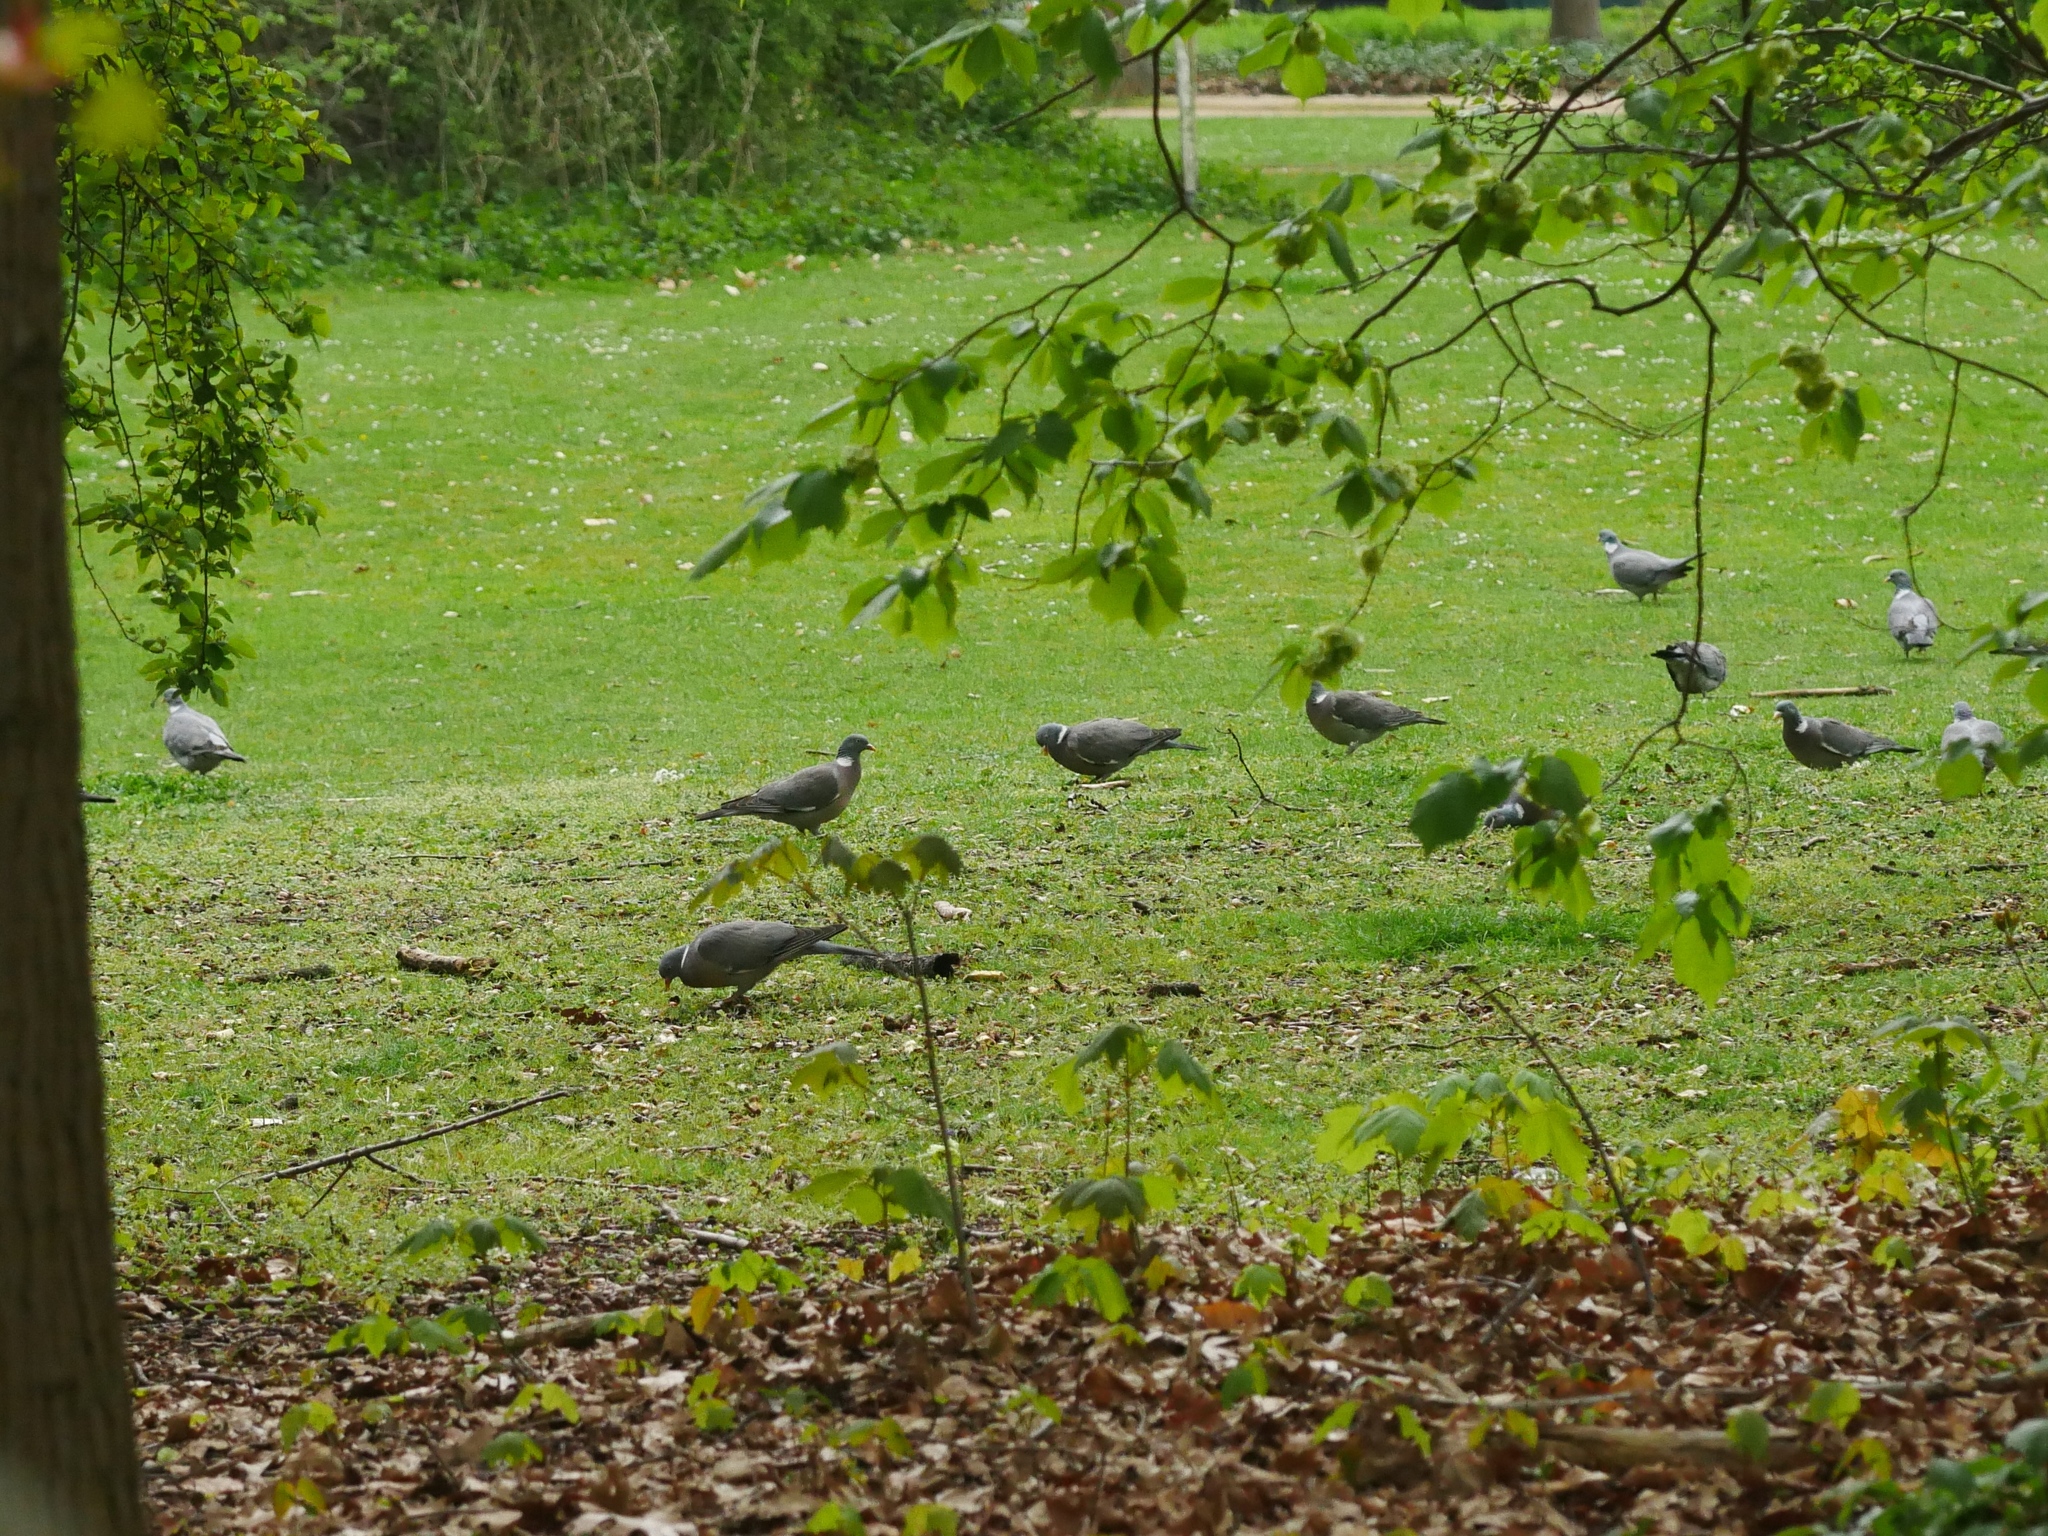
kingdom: Animalia
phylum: Chordata
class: Aves
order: Columbiformes
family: Columbidae
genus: Columba
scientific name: Columba palumbus
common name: Common wood pigeon
